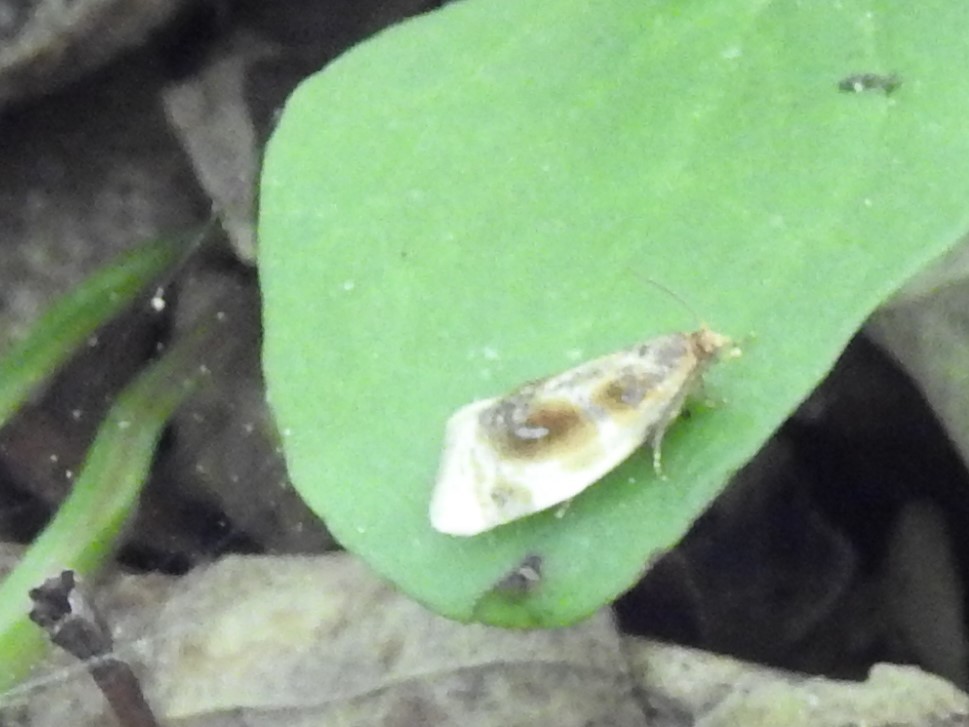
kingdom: Animalia
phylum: Arthropoda
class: Insecta
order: Lepidoptera
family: Tortricidae
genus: Clepsis
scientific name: Clepsis melaleucanus
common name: American apple tortrix
